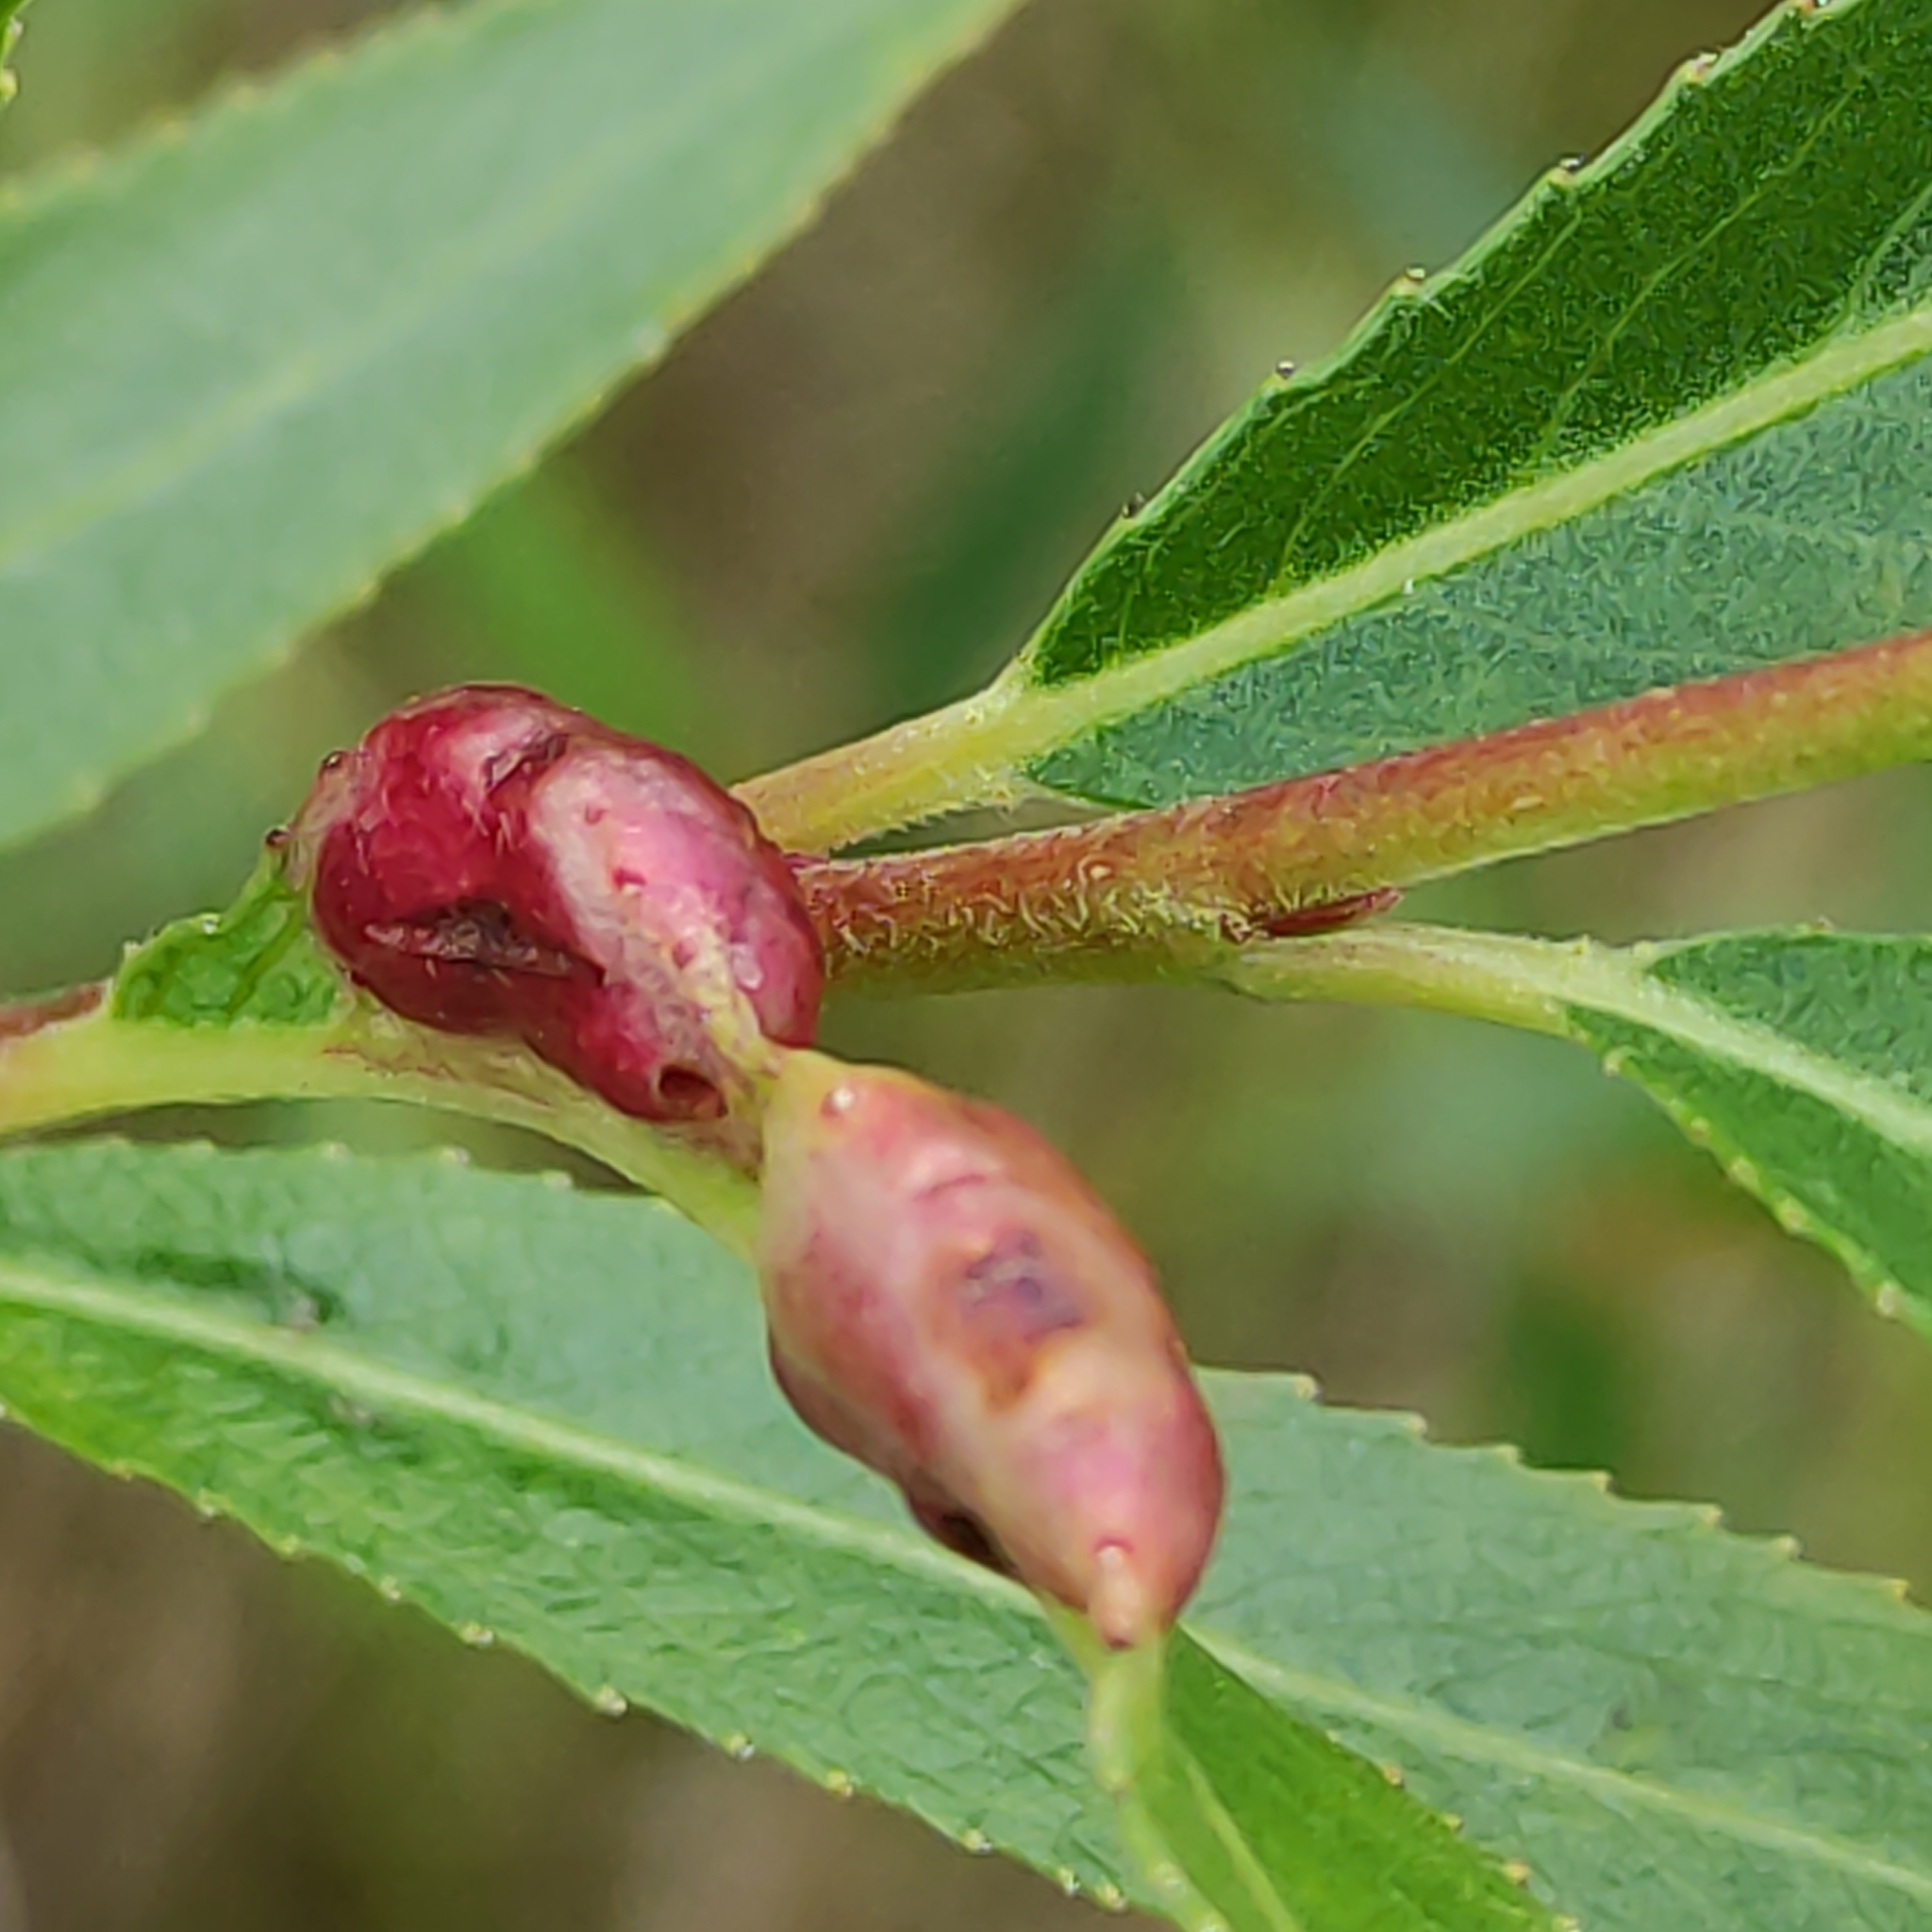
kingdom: Animalia
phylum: Arthropoda
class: Insecta
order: Hymenoptera
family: Tenthredinidae
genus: Pontania
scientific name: Pontania proxima
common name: Common sawfly
